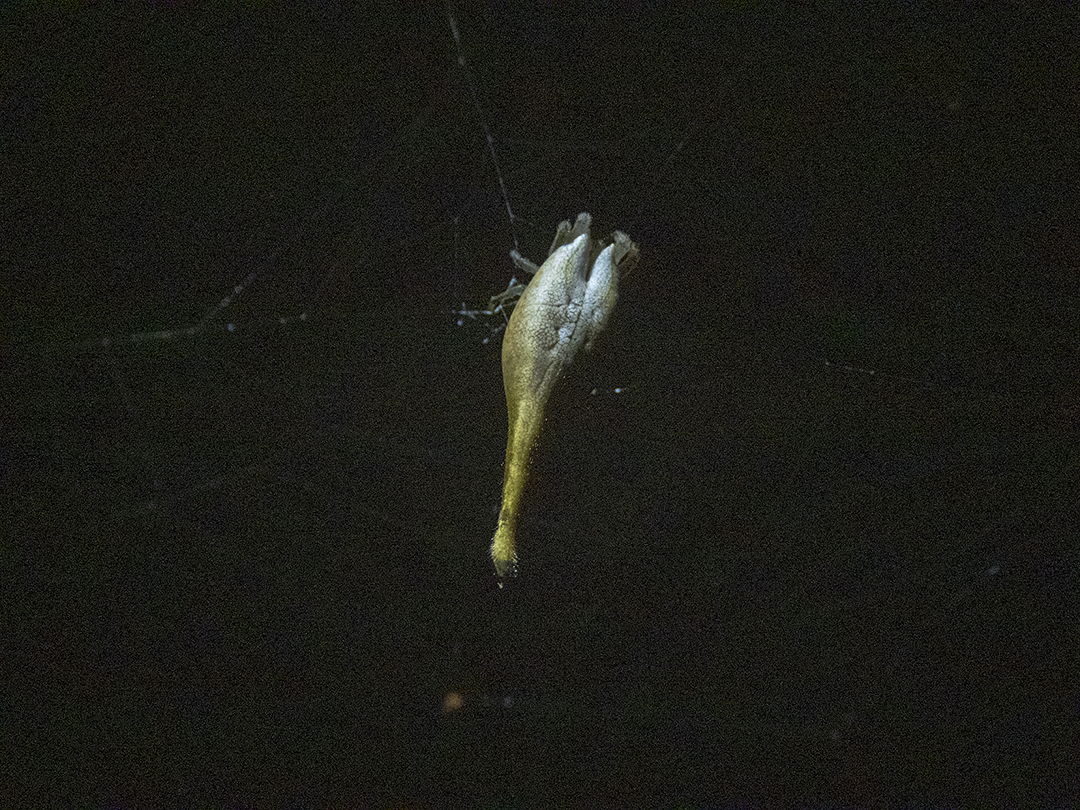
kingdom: Animalia
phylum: Arthropoda
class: Arachnida
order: Araneae
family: Araneidae
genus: Arachnura
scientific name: Arachnura feredayi
